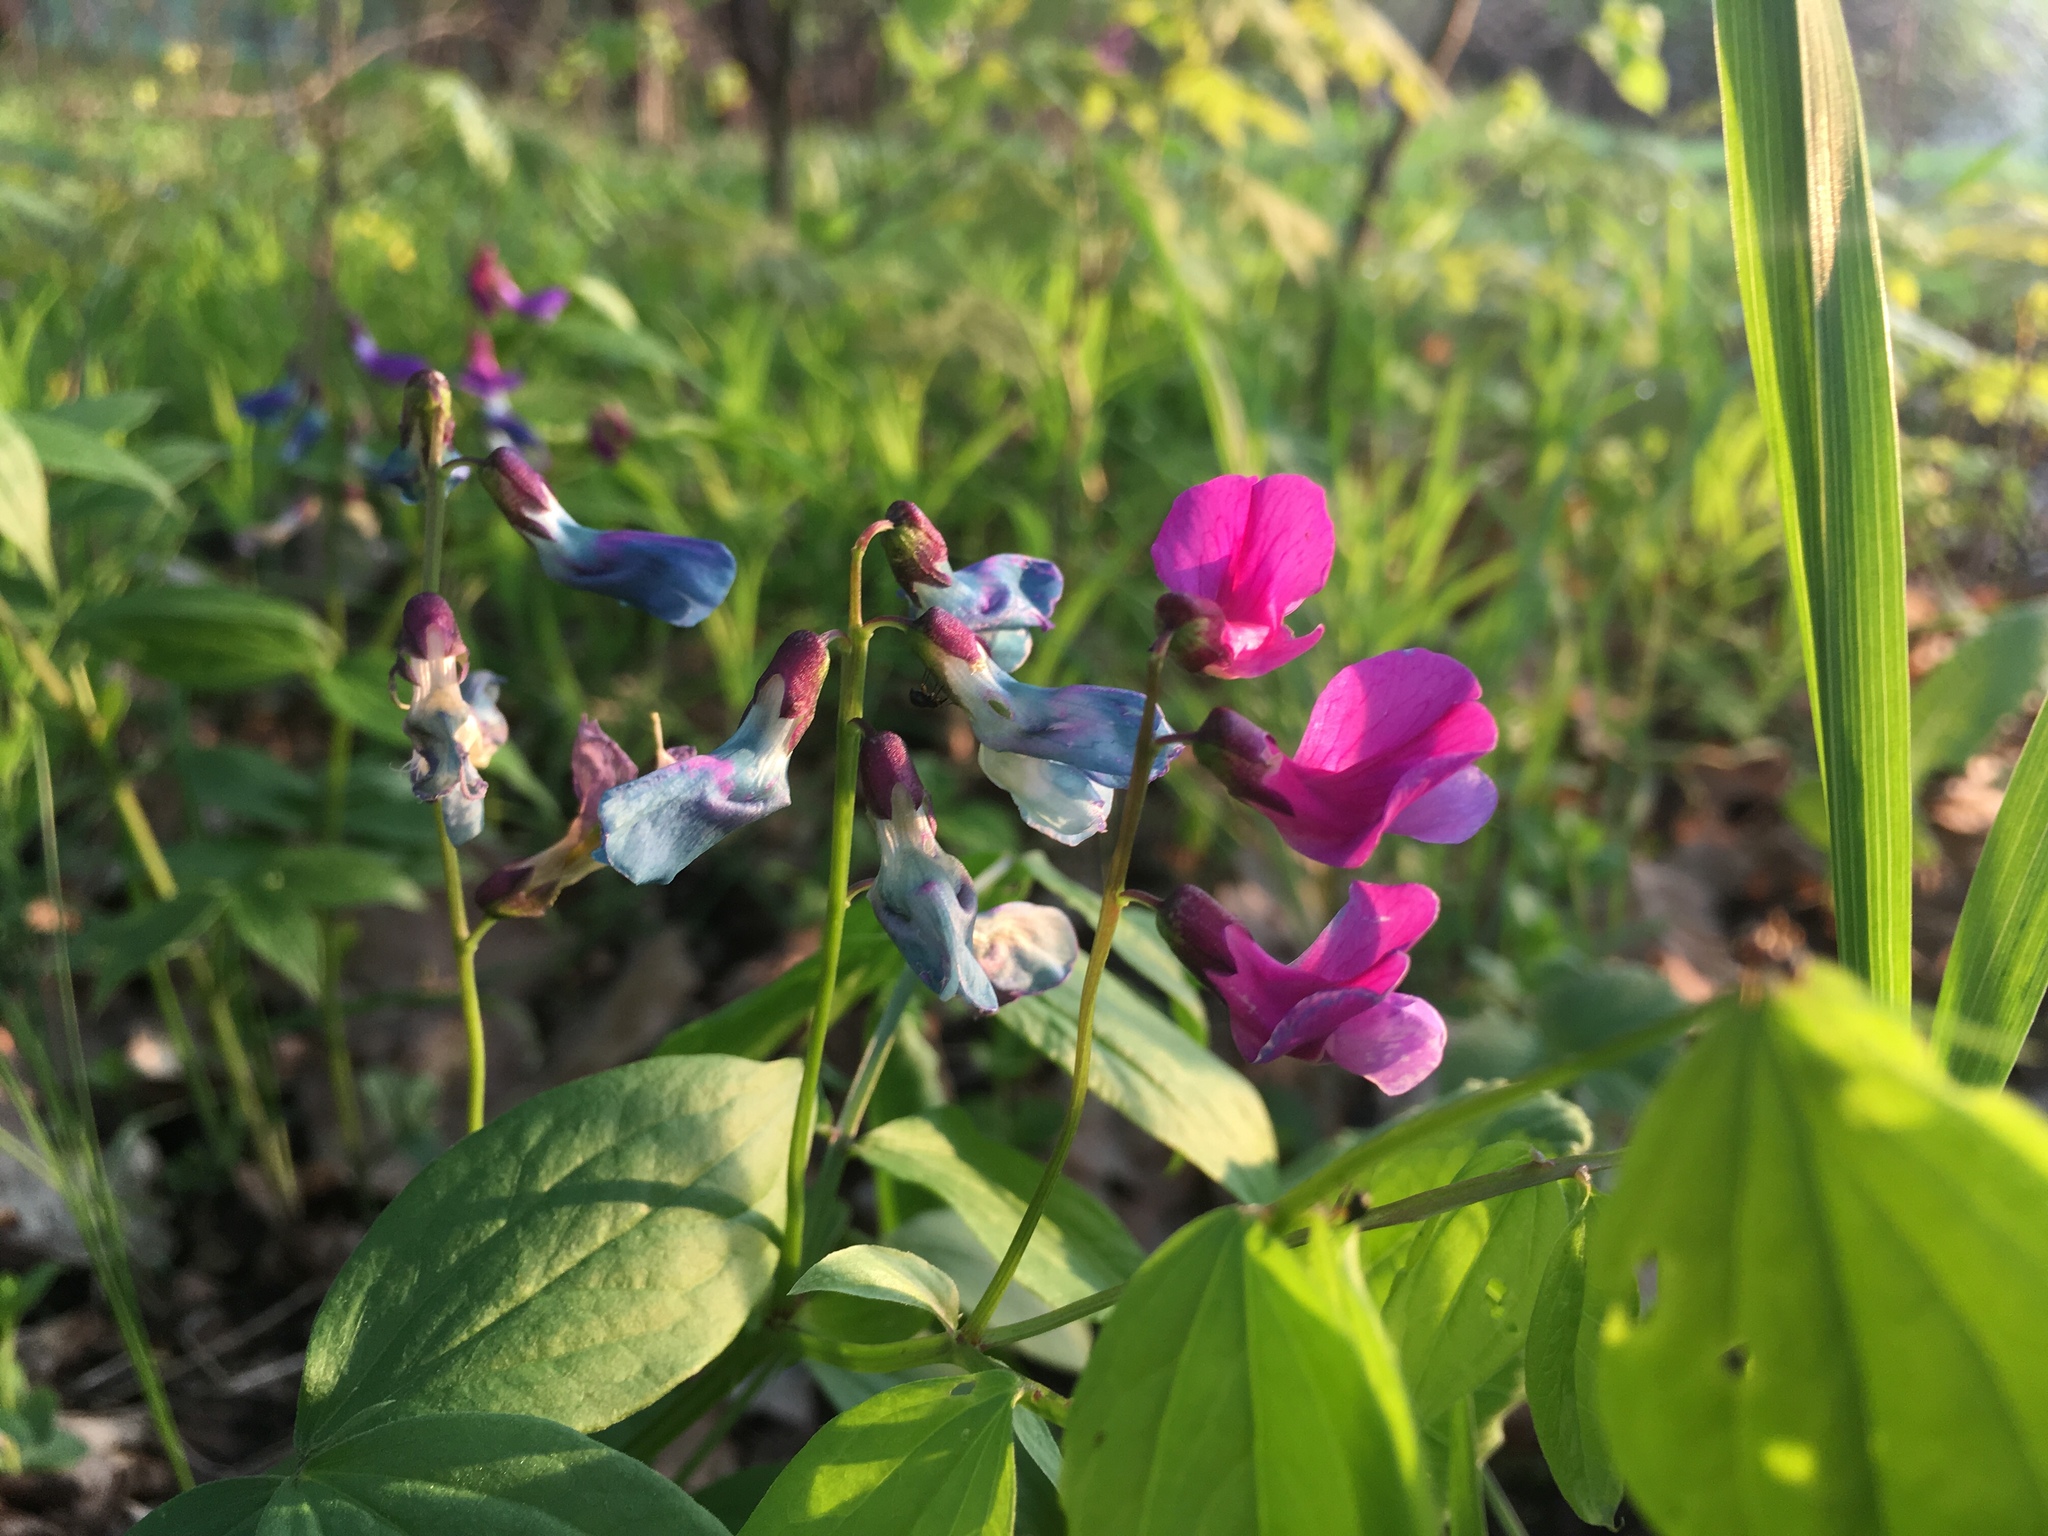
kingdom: Plantae
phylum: Tracheophyta
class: Magnoliopsida
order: Fabales
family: Fabaceae
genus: Lathyrus
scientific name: Lathyrus vernus
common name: Spring pea
